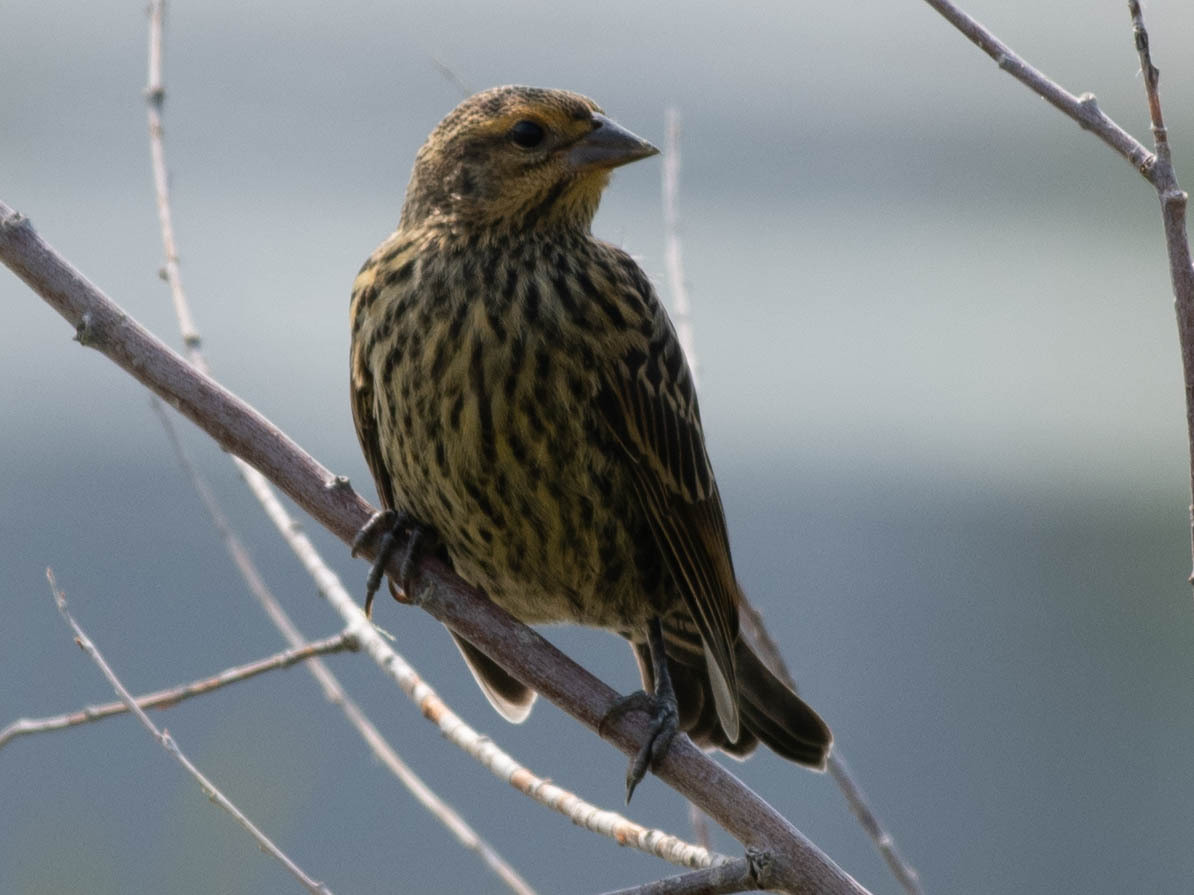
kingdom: Animalia
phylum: Chordata
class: Aves
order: Passeriformes
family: Icteridae
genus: Agelaius
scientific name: Agelaius phoeniceus
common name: Red-winged blackbird
